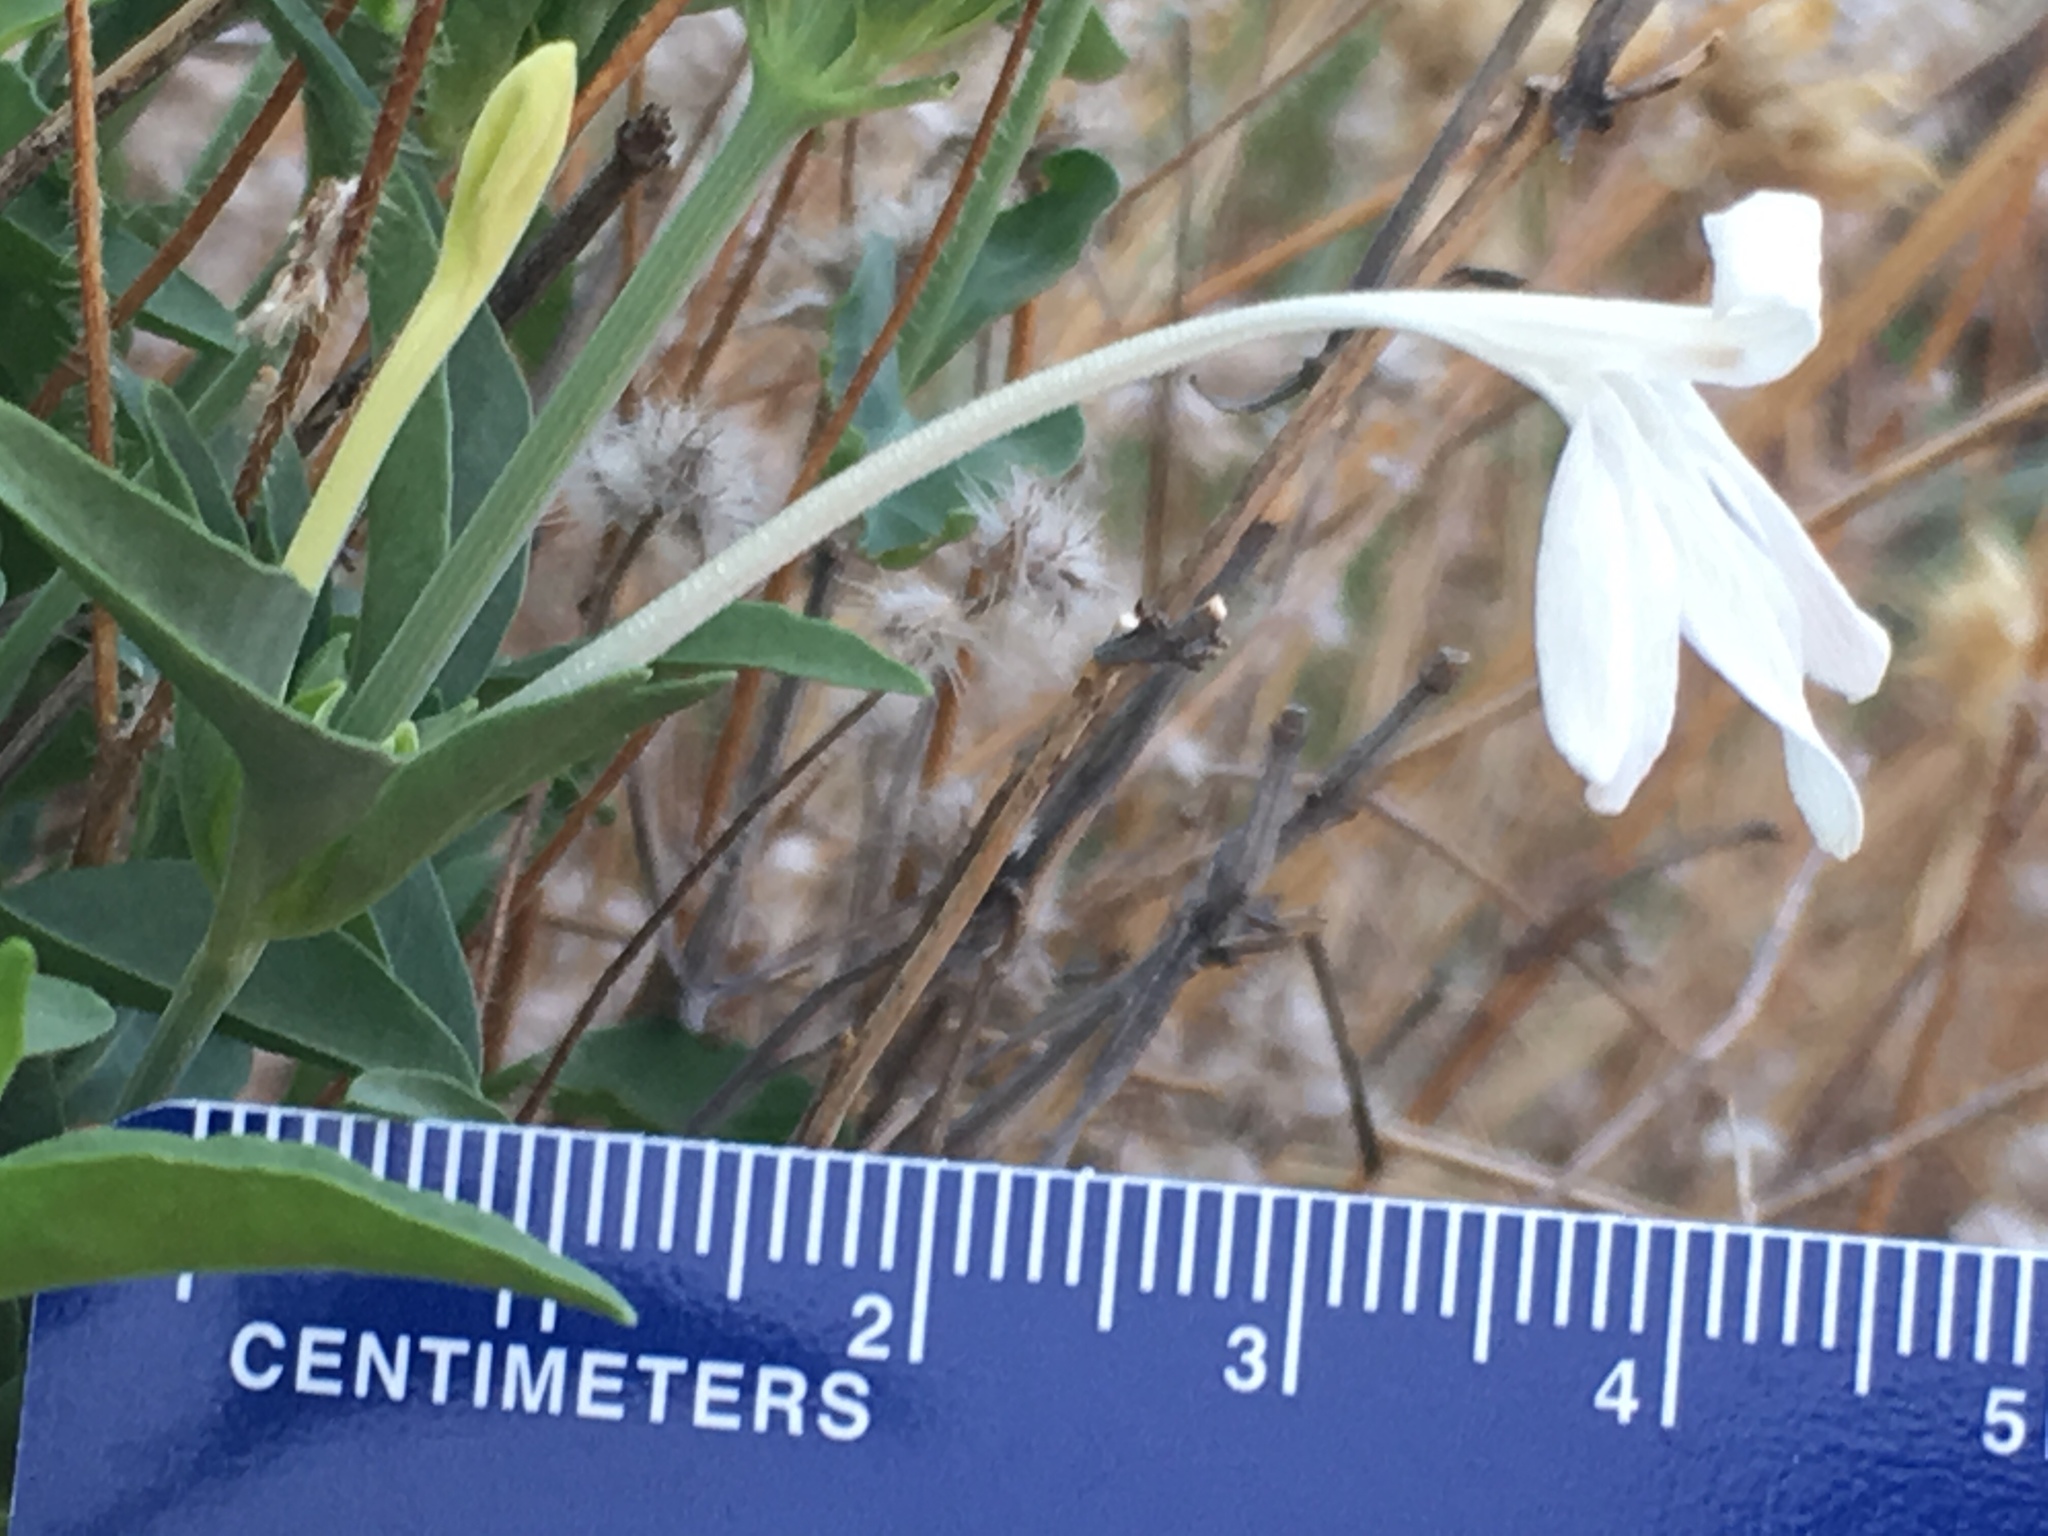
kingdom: Plantae
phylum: Tracheophyta
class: Magnoliopsida
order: Lamiales
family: Acanthaceae
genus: Justicia
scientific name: Justicia longii
